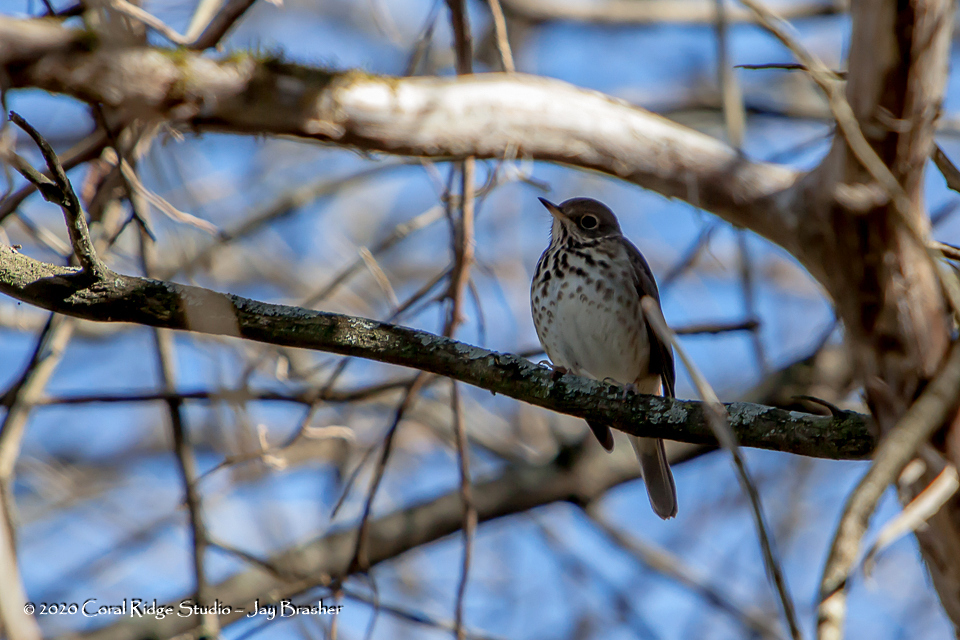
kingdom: Animalia
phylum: Chordata
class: Aves
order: Passeriformes
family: Turdidae
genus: Catharus
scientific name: Catharus guttatus
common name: Hermit thrush
